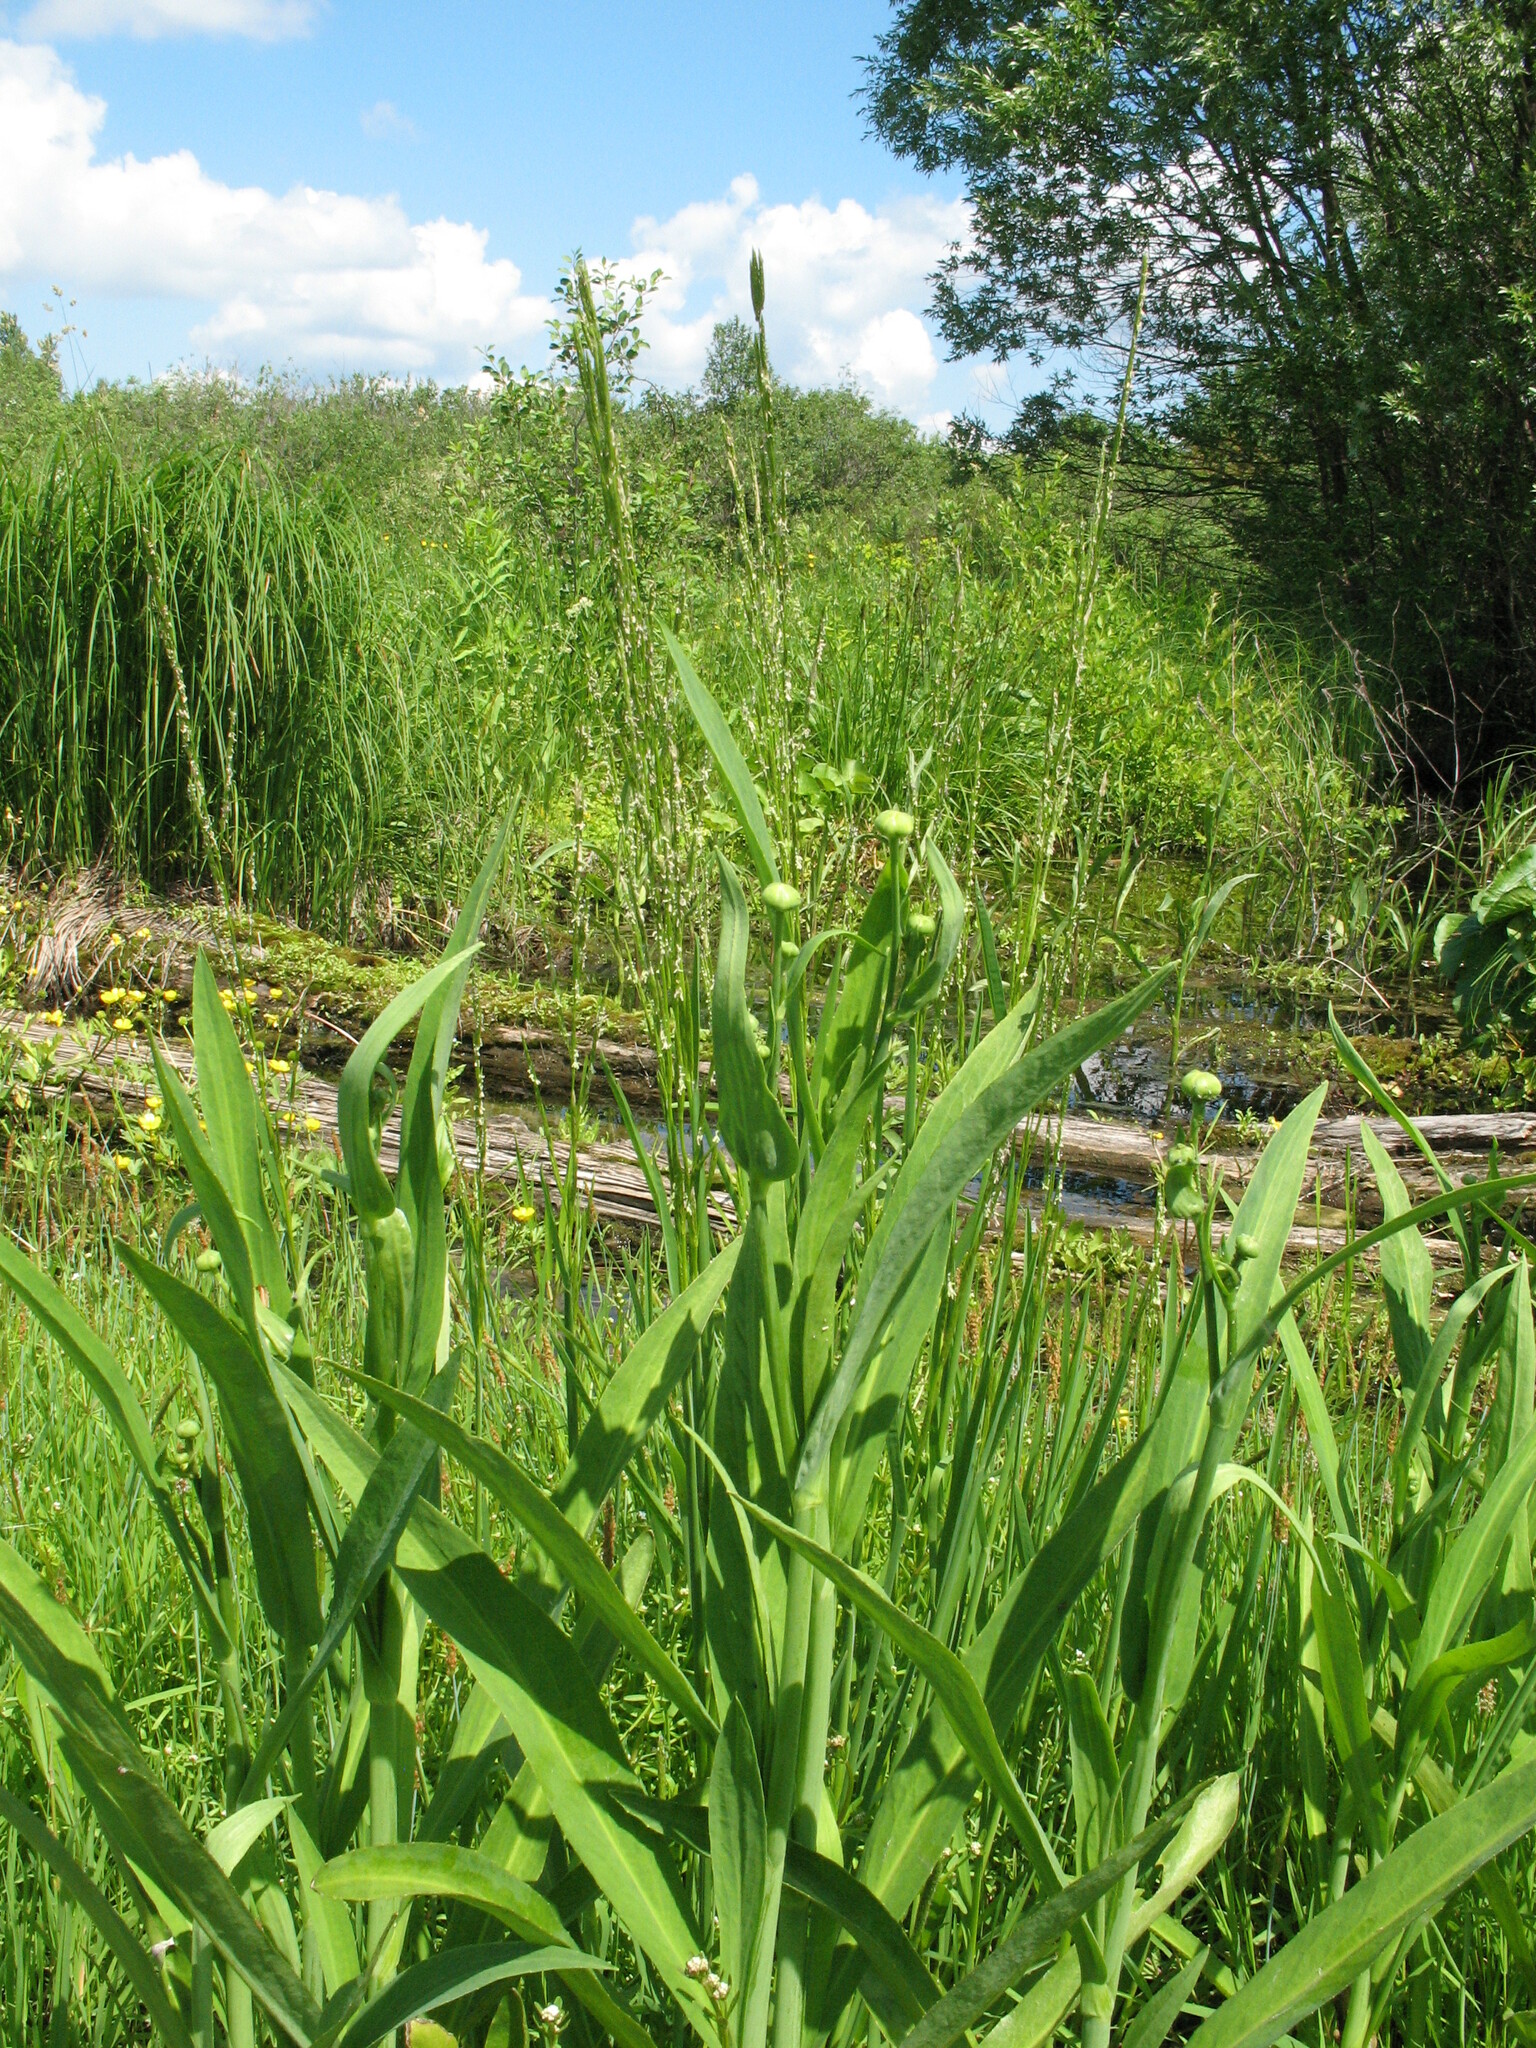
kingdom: Plantae
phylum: Tracheophyta
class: Magnoliopsida
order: Ranunculales
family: Ranunculaceae
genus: Ranunculus
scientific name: Ranunculus lingua
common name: Greater spearwort
